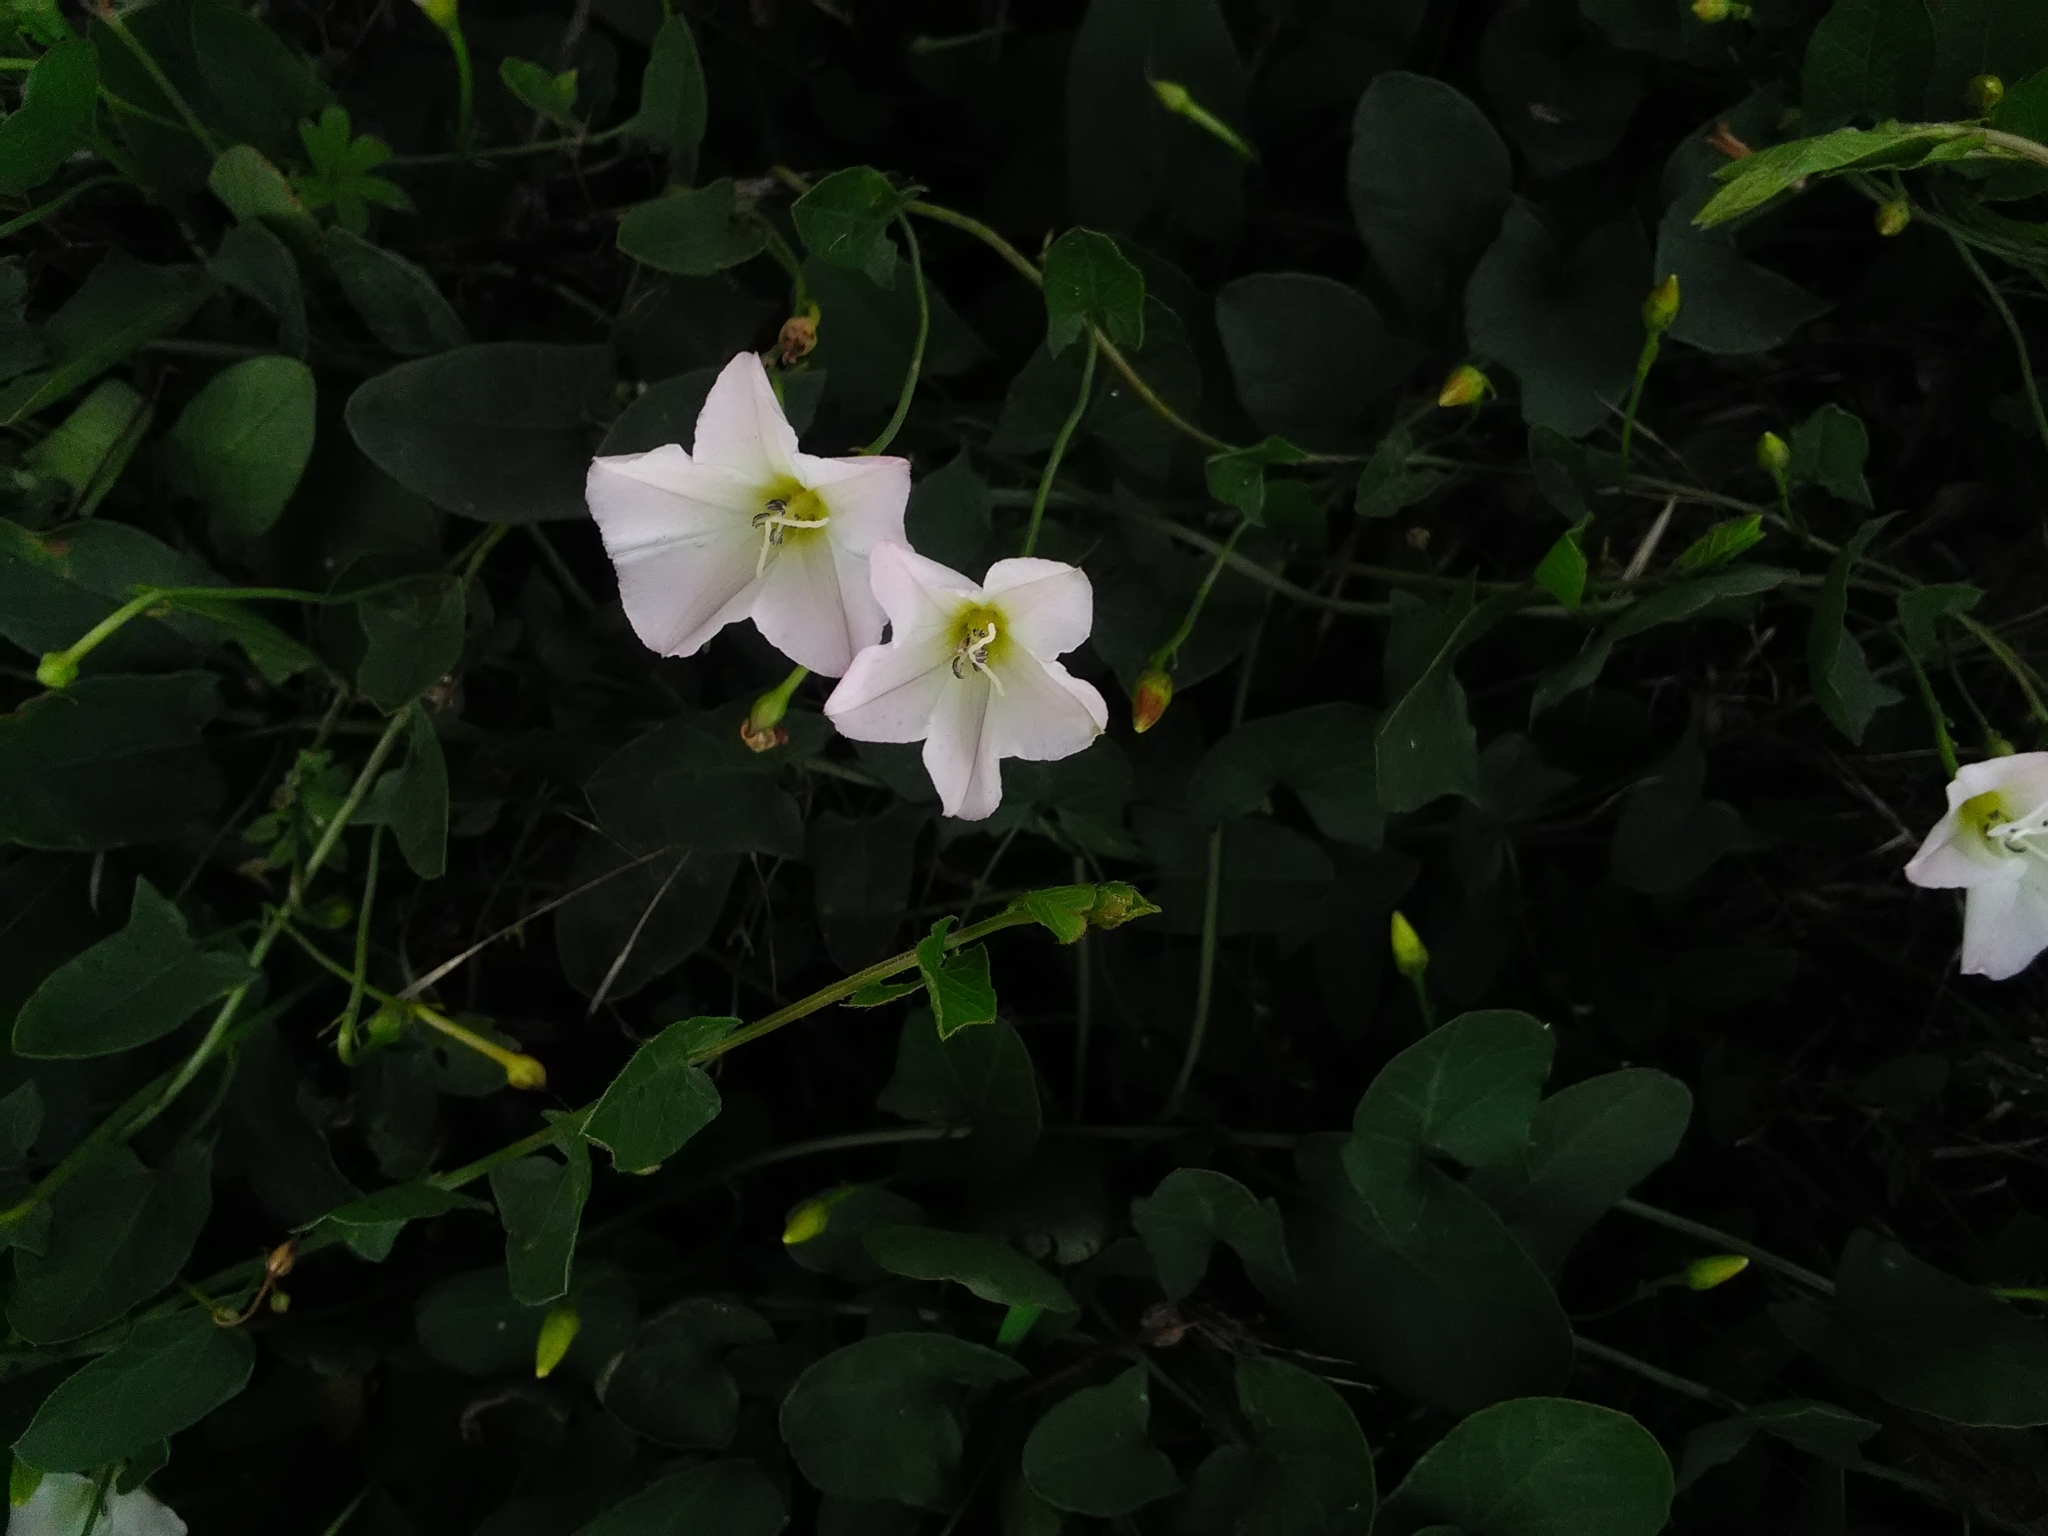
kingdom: Plantae
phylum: Tracheophyta
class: Magnoliopsida
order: Solanales
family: Convolvulaceae
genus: Convolvulus
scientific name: Convolvulus arvensis
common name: Field bindweed
